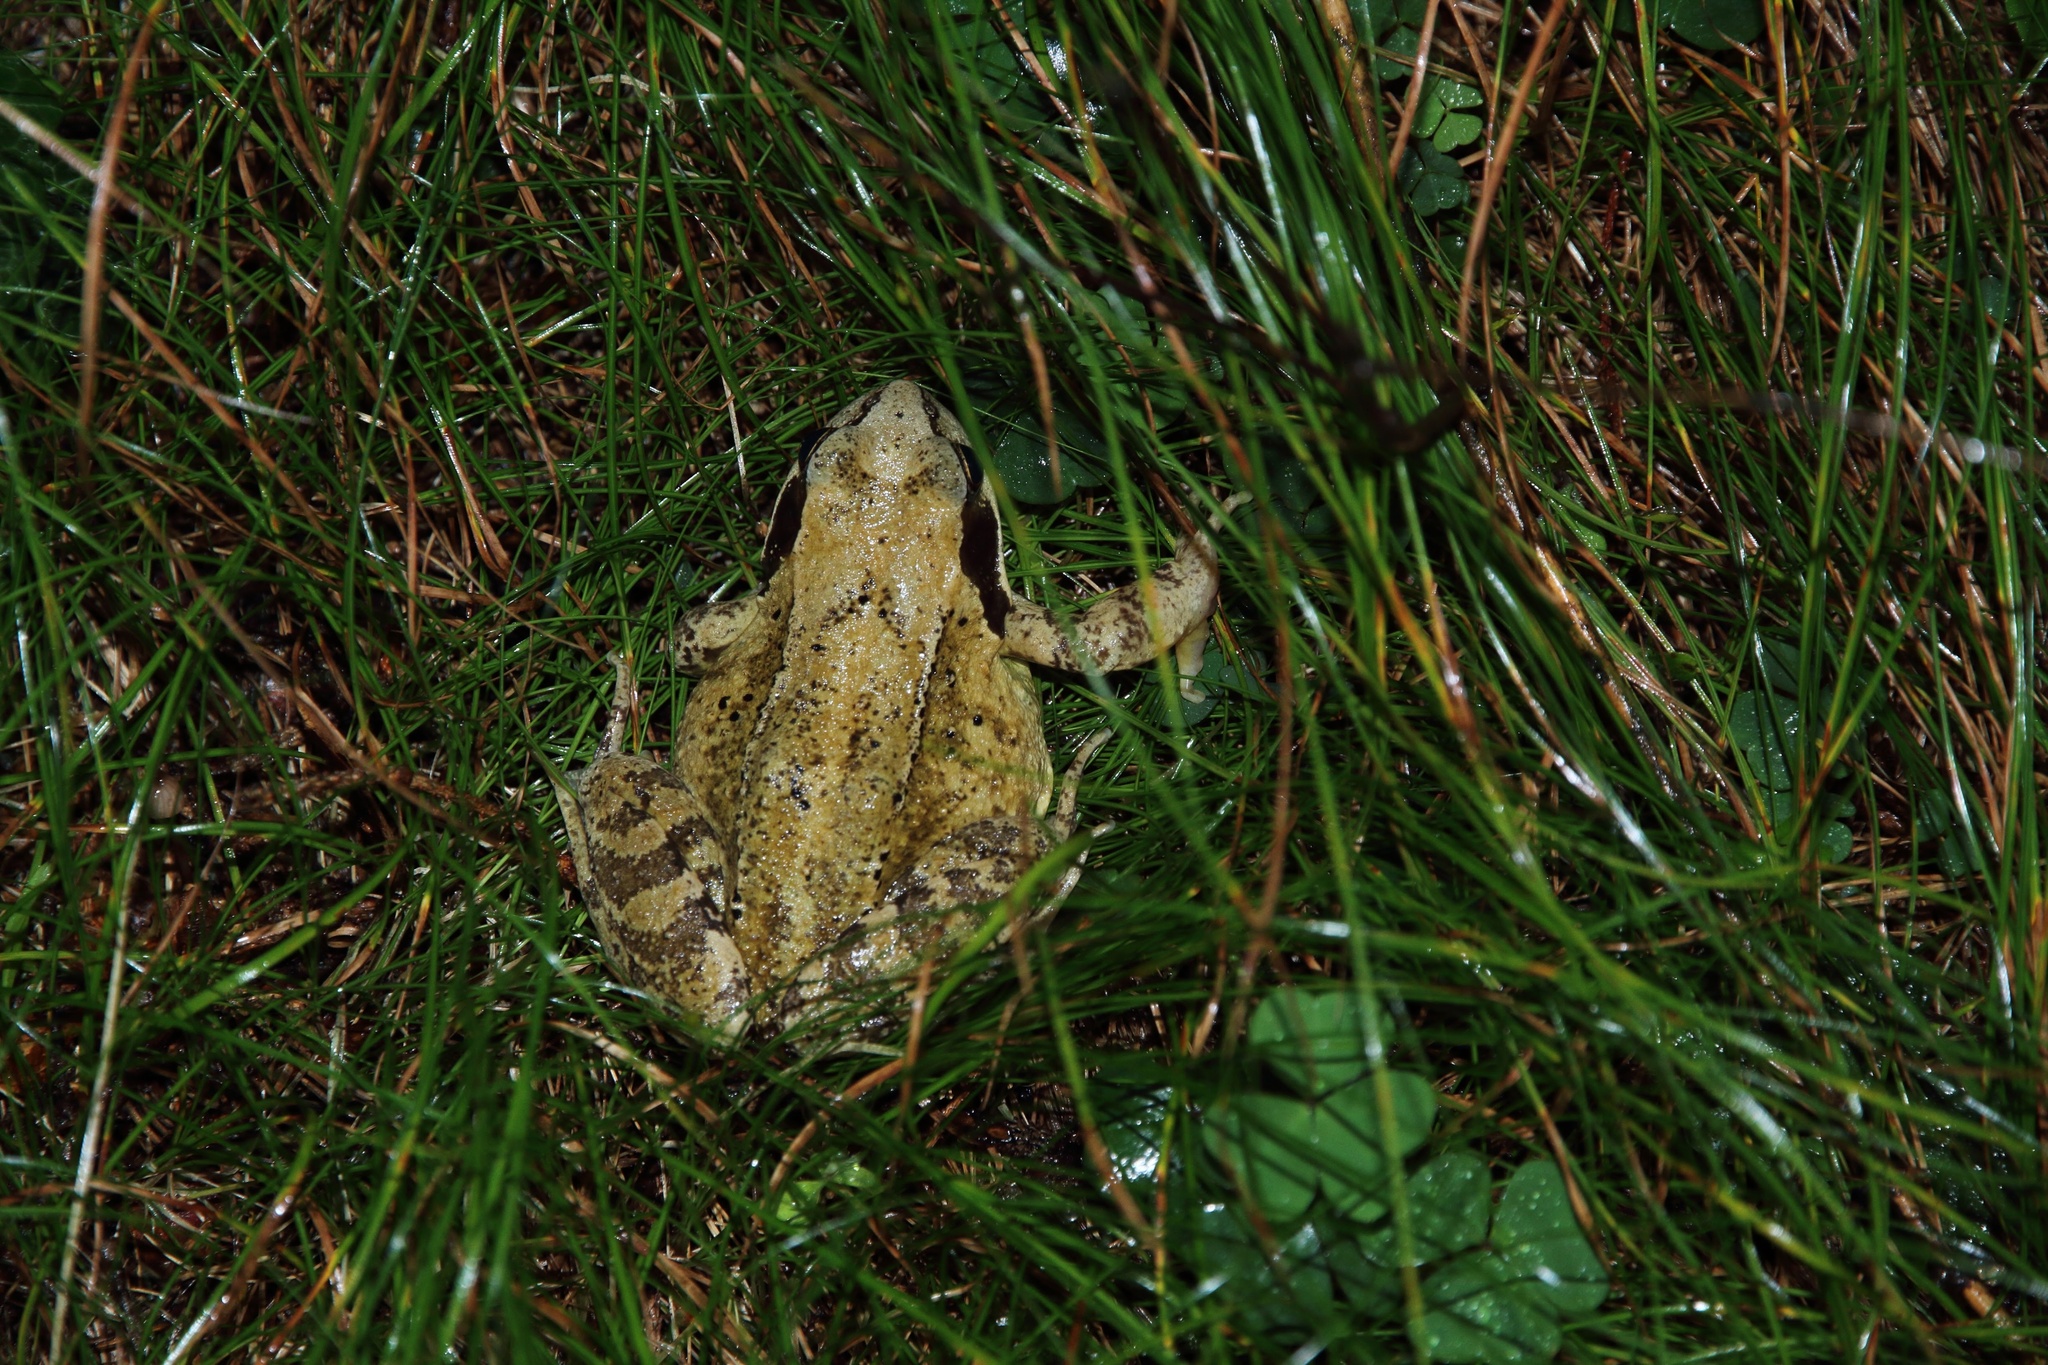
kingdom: Animalia
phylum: Chordata
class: Amphibia
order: Anura
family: Ranidae
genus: Rana
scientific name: Rana temporaria
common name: Common frog
